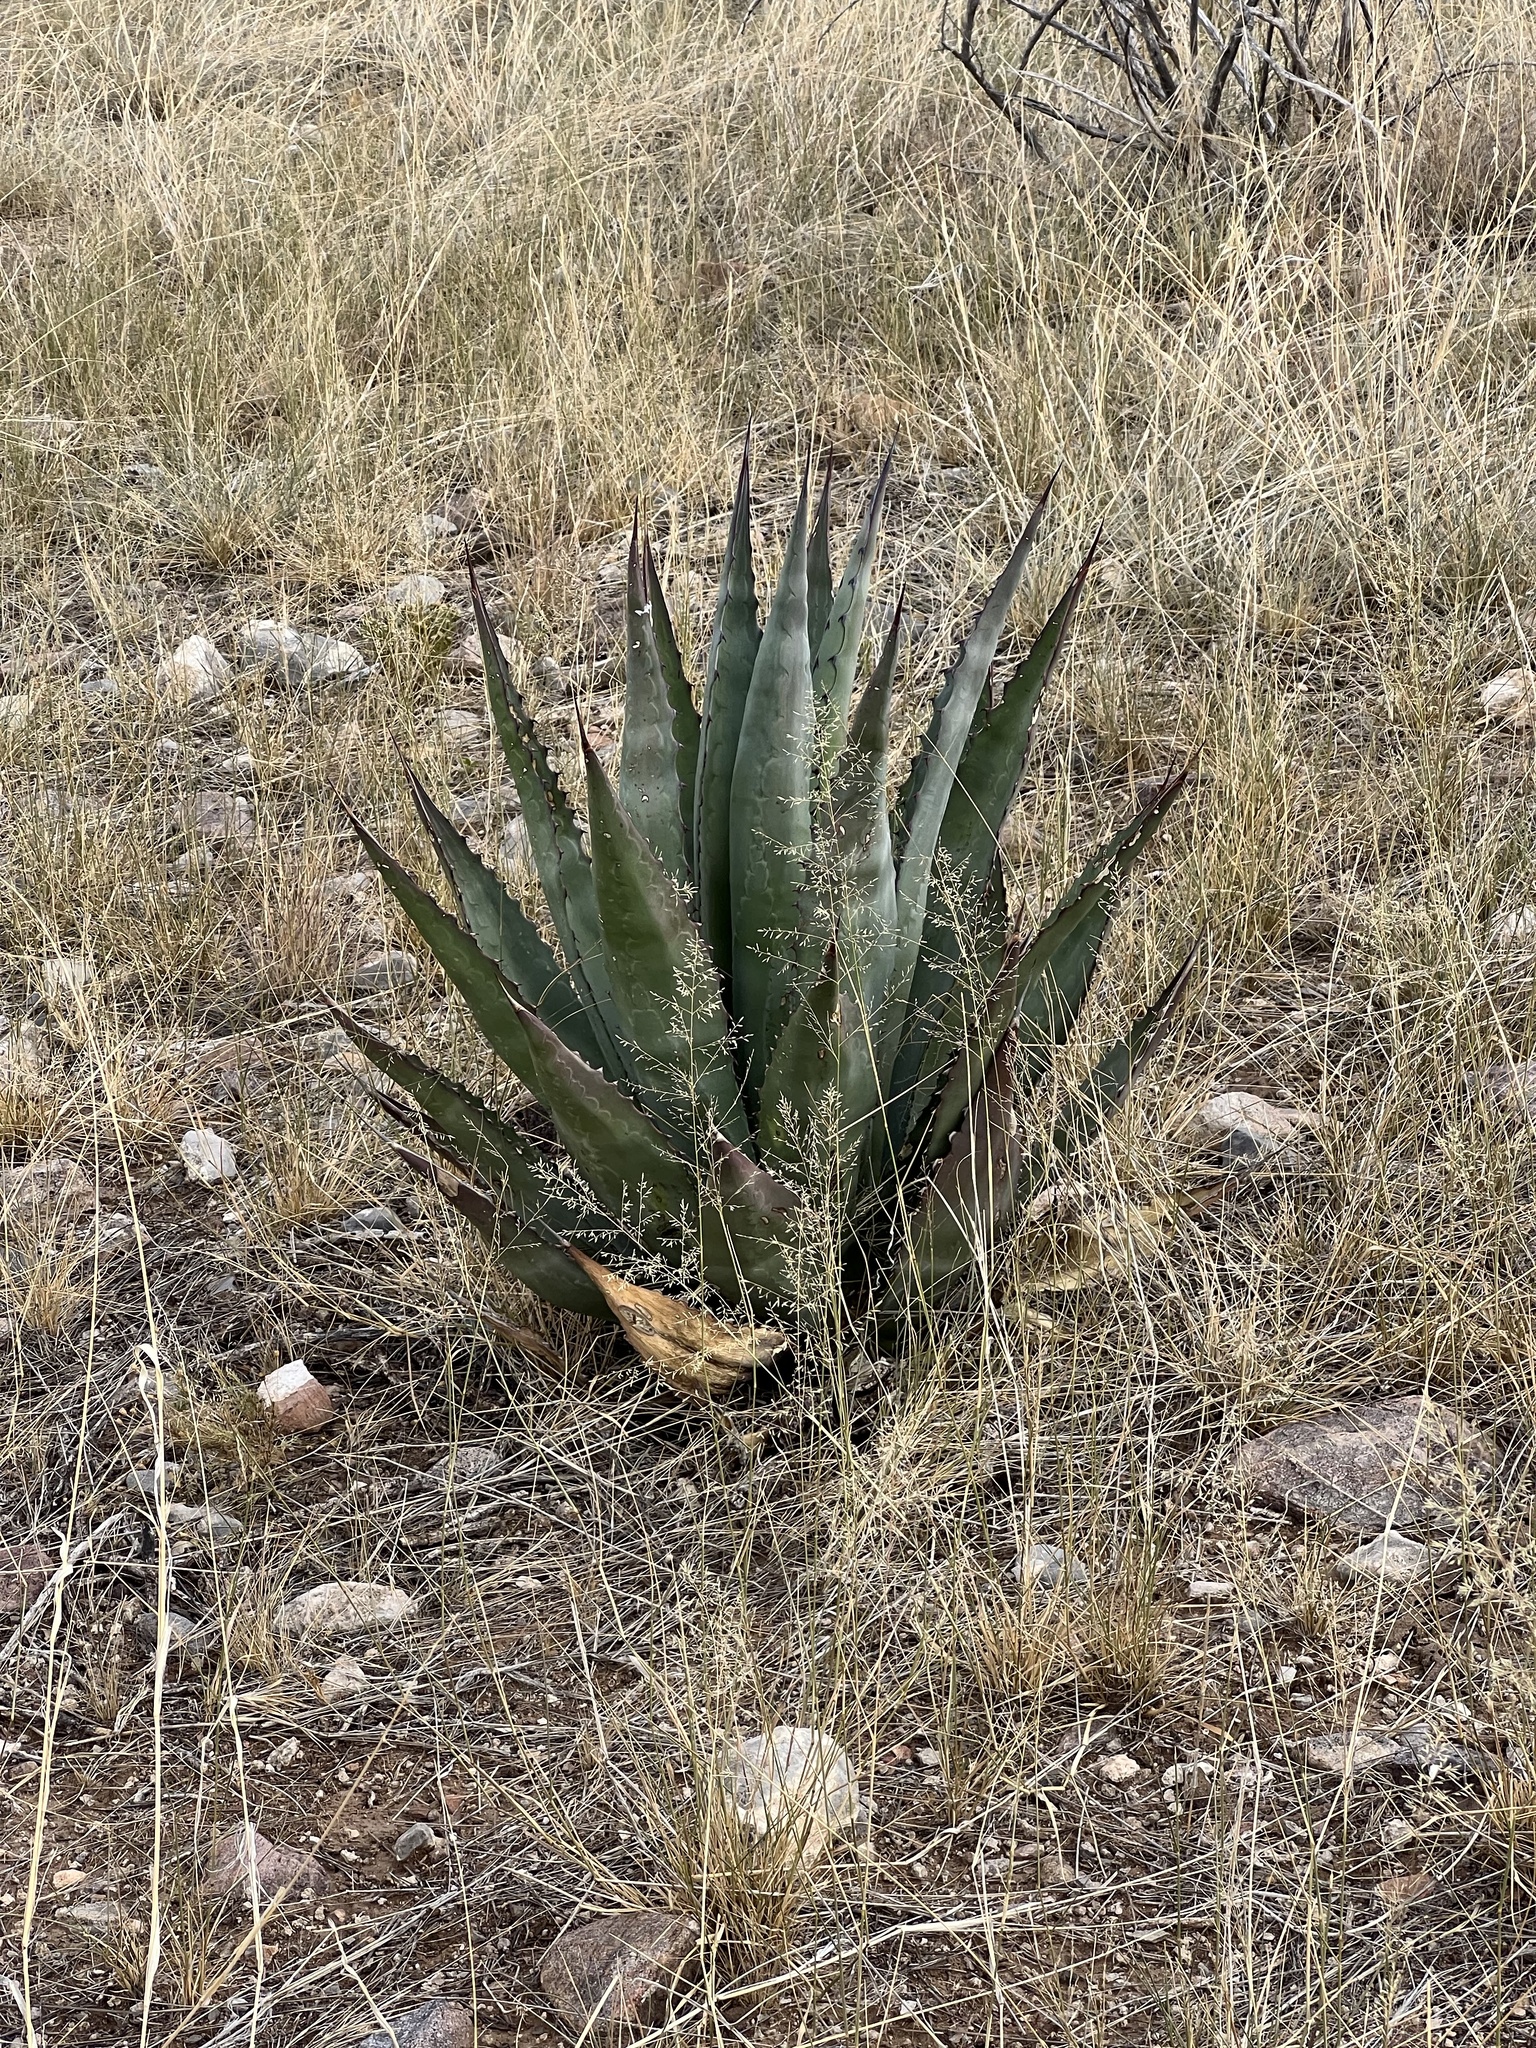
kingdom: Plantae
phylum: Tracheophyta
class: Liliopsida
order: Asparagales
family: Asparagaceae
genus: Agave
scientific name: Agave palmeri
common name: Palmer agave
